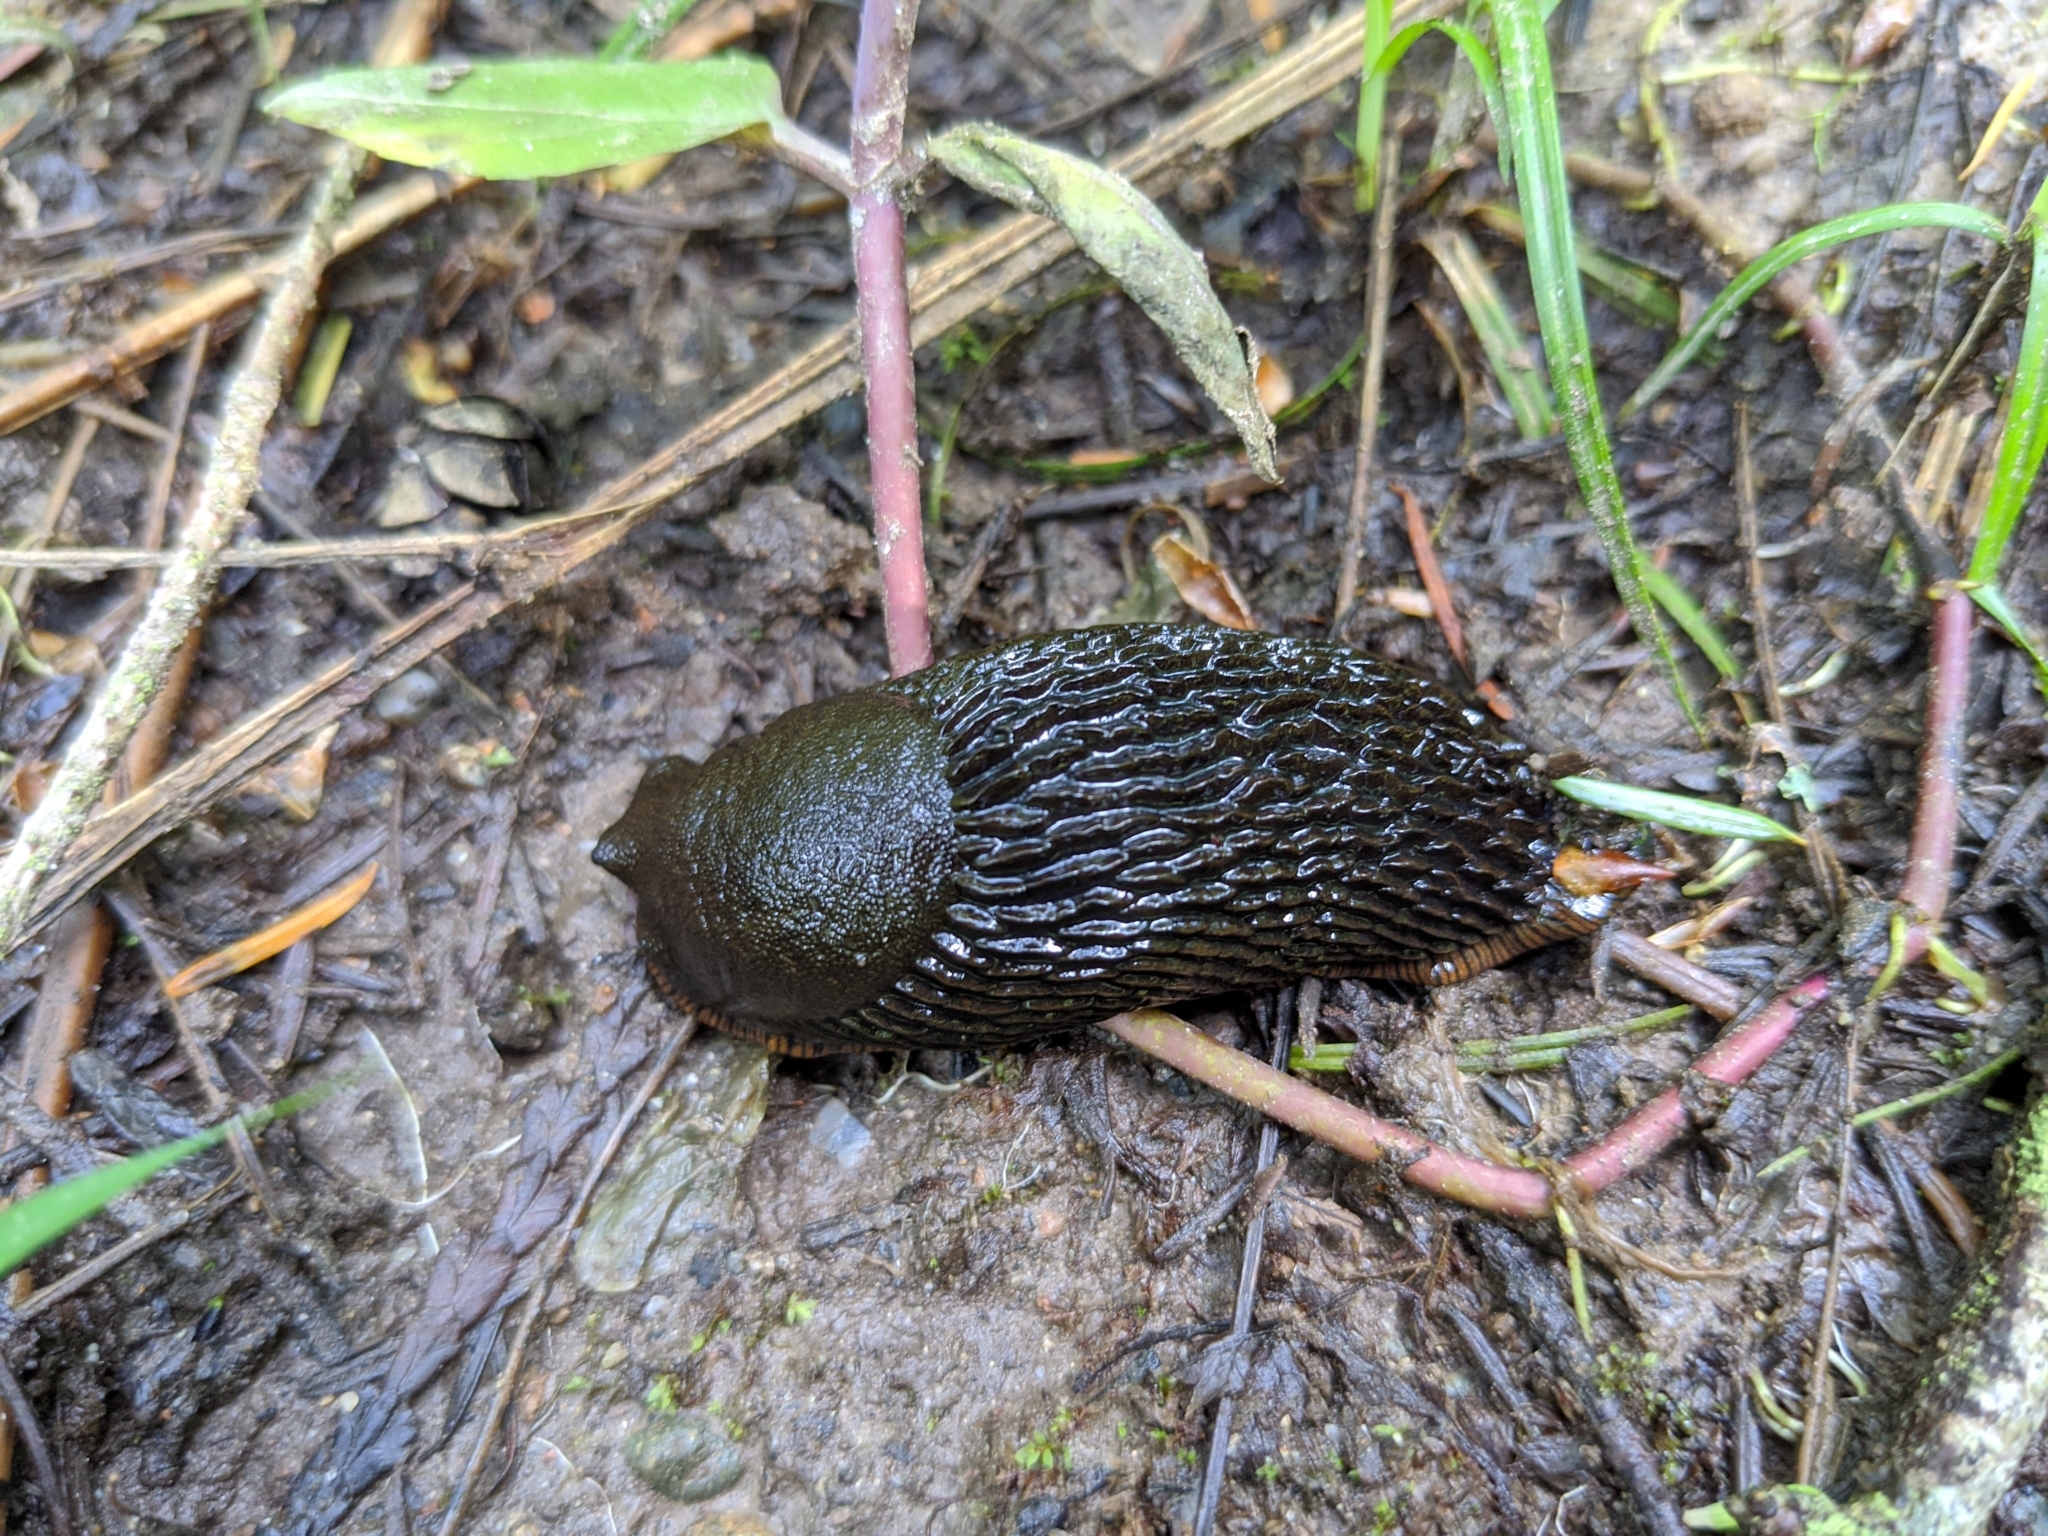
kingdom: Animalia
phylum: Mollusca
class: Gastropoda
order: Stylommatophora
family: Arionidae
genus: Arion
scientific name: Arion
